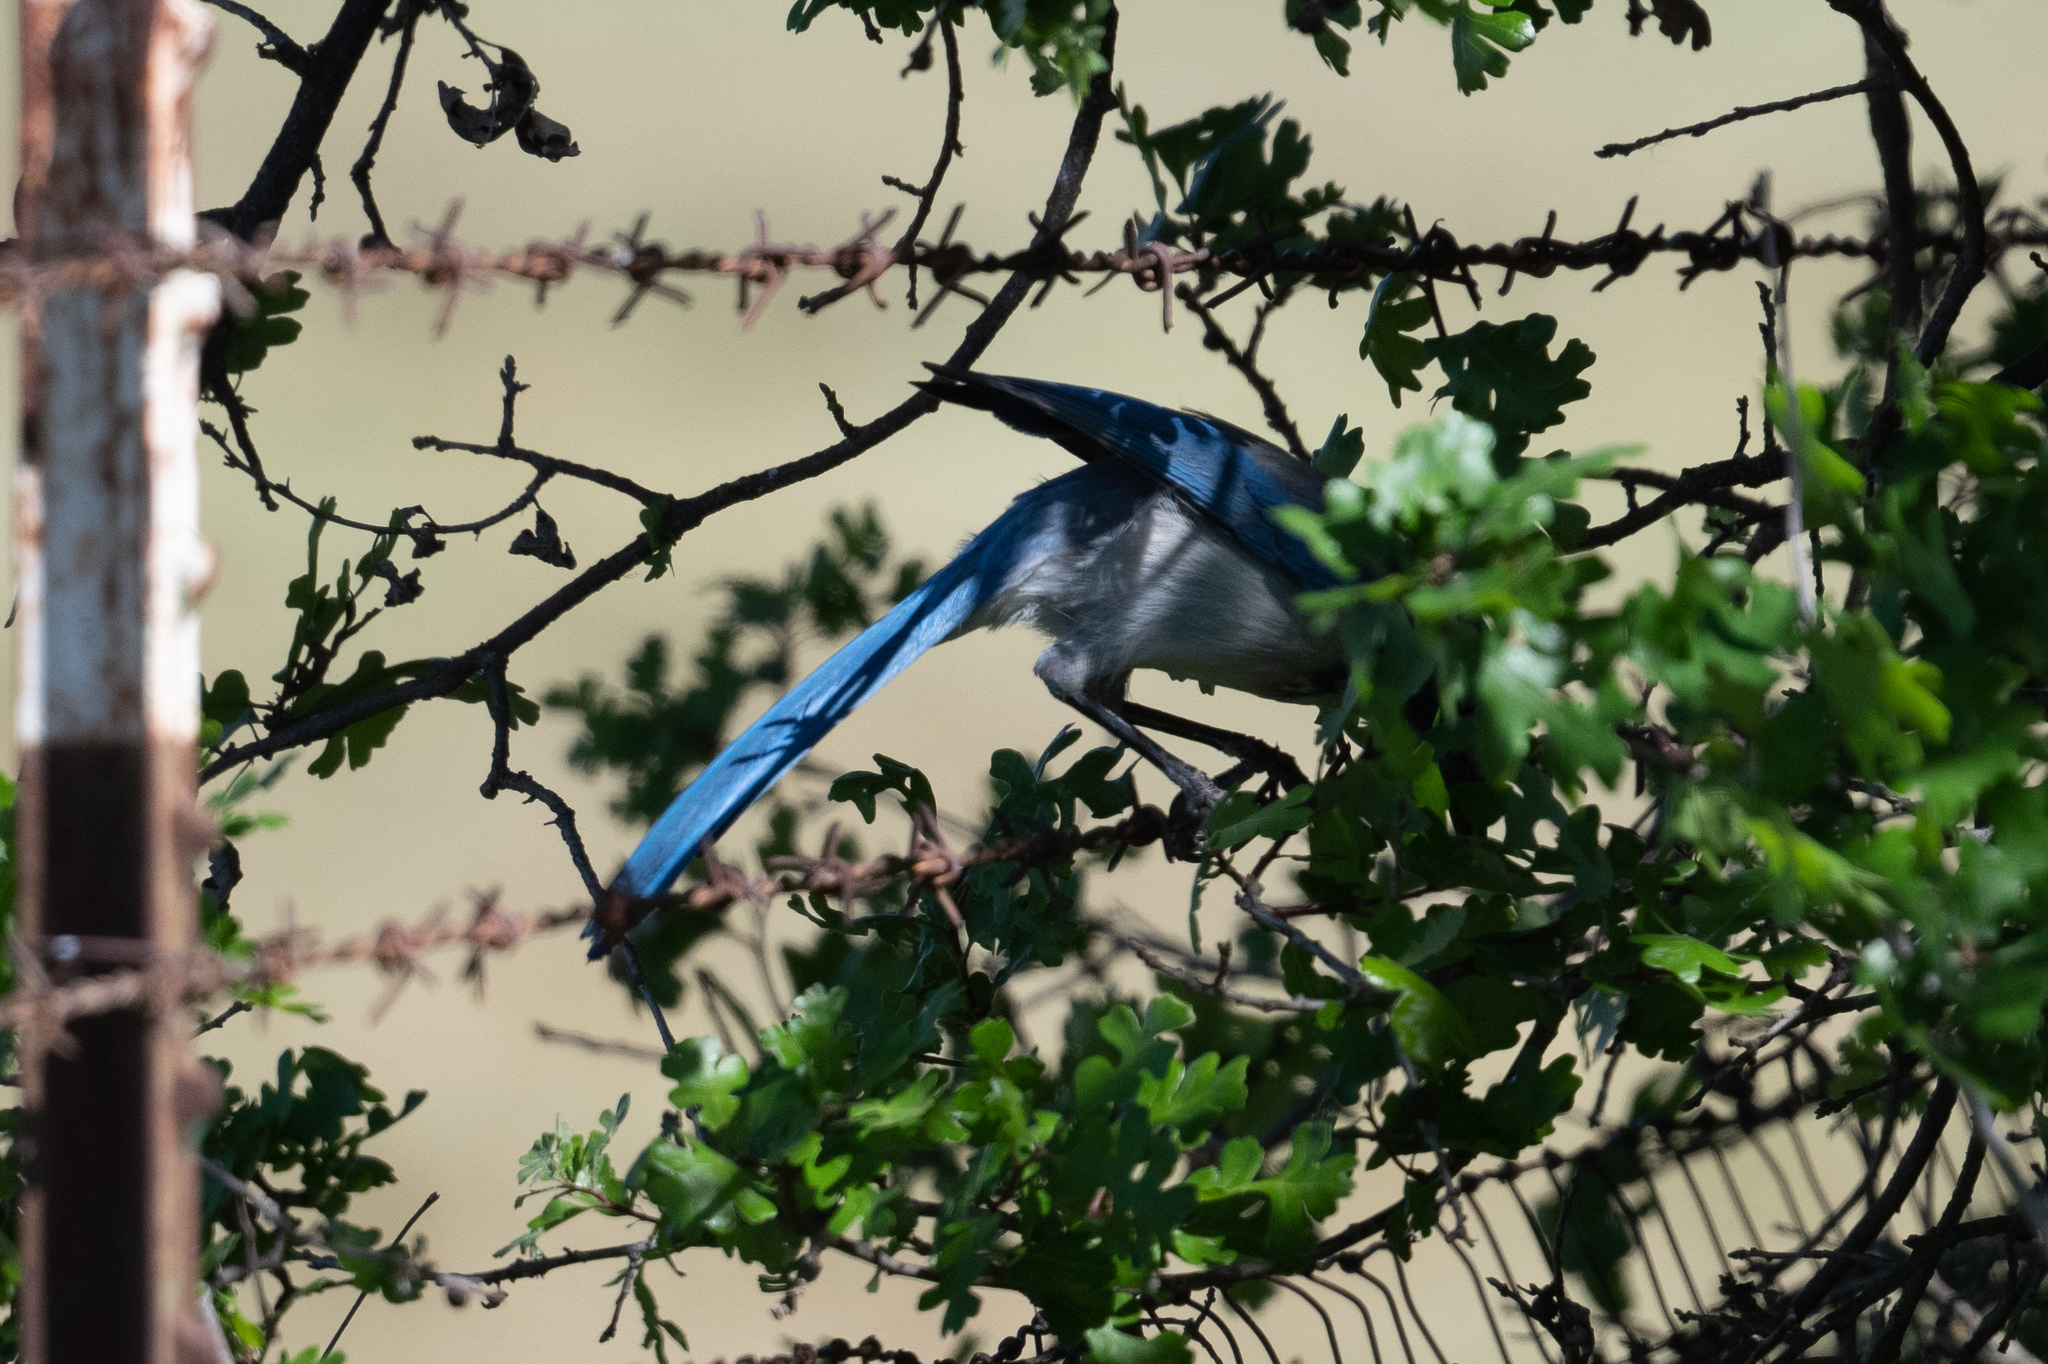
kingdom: Animalia
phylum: Chordata
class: Aves
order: Passeriformes
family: Corvidae
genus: Aphelocoma
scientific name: Aphelocoma californica
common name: California scrub-jay
